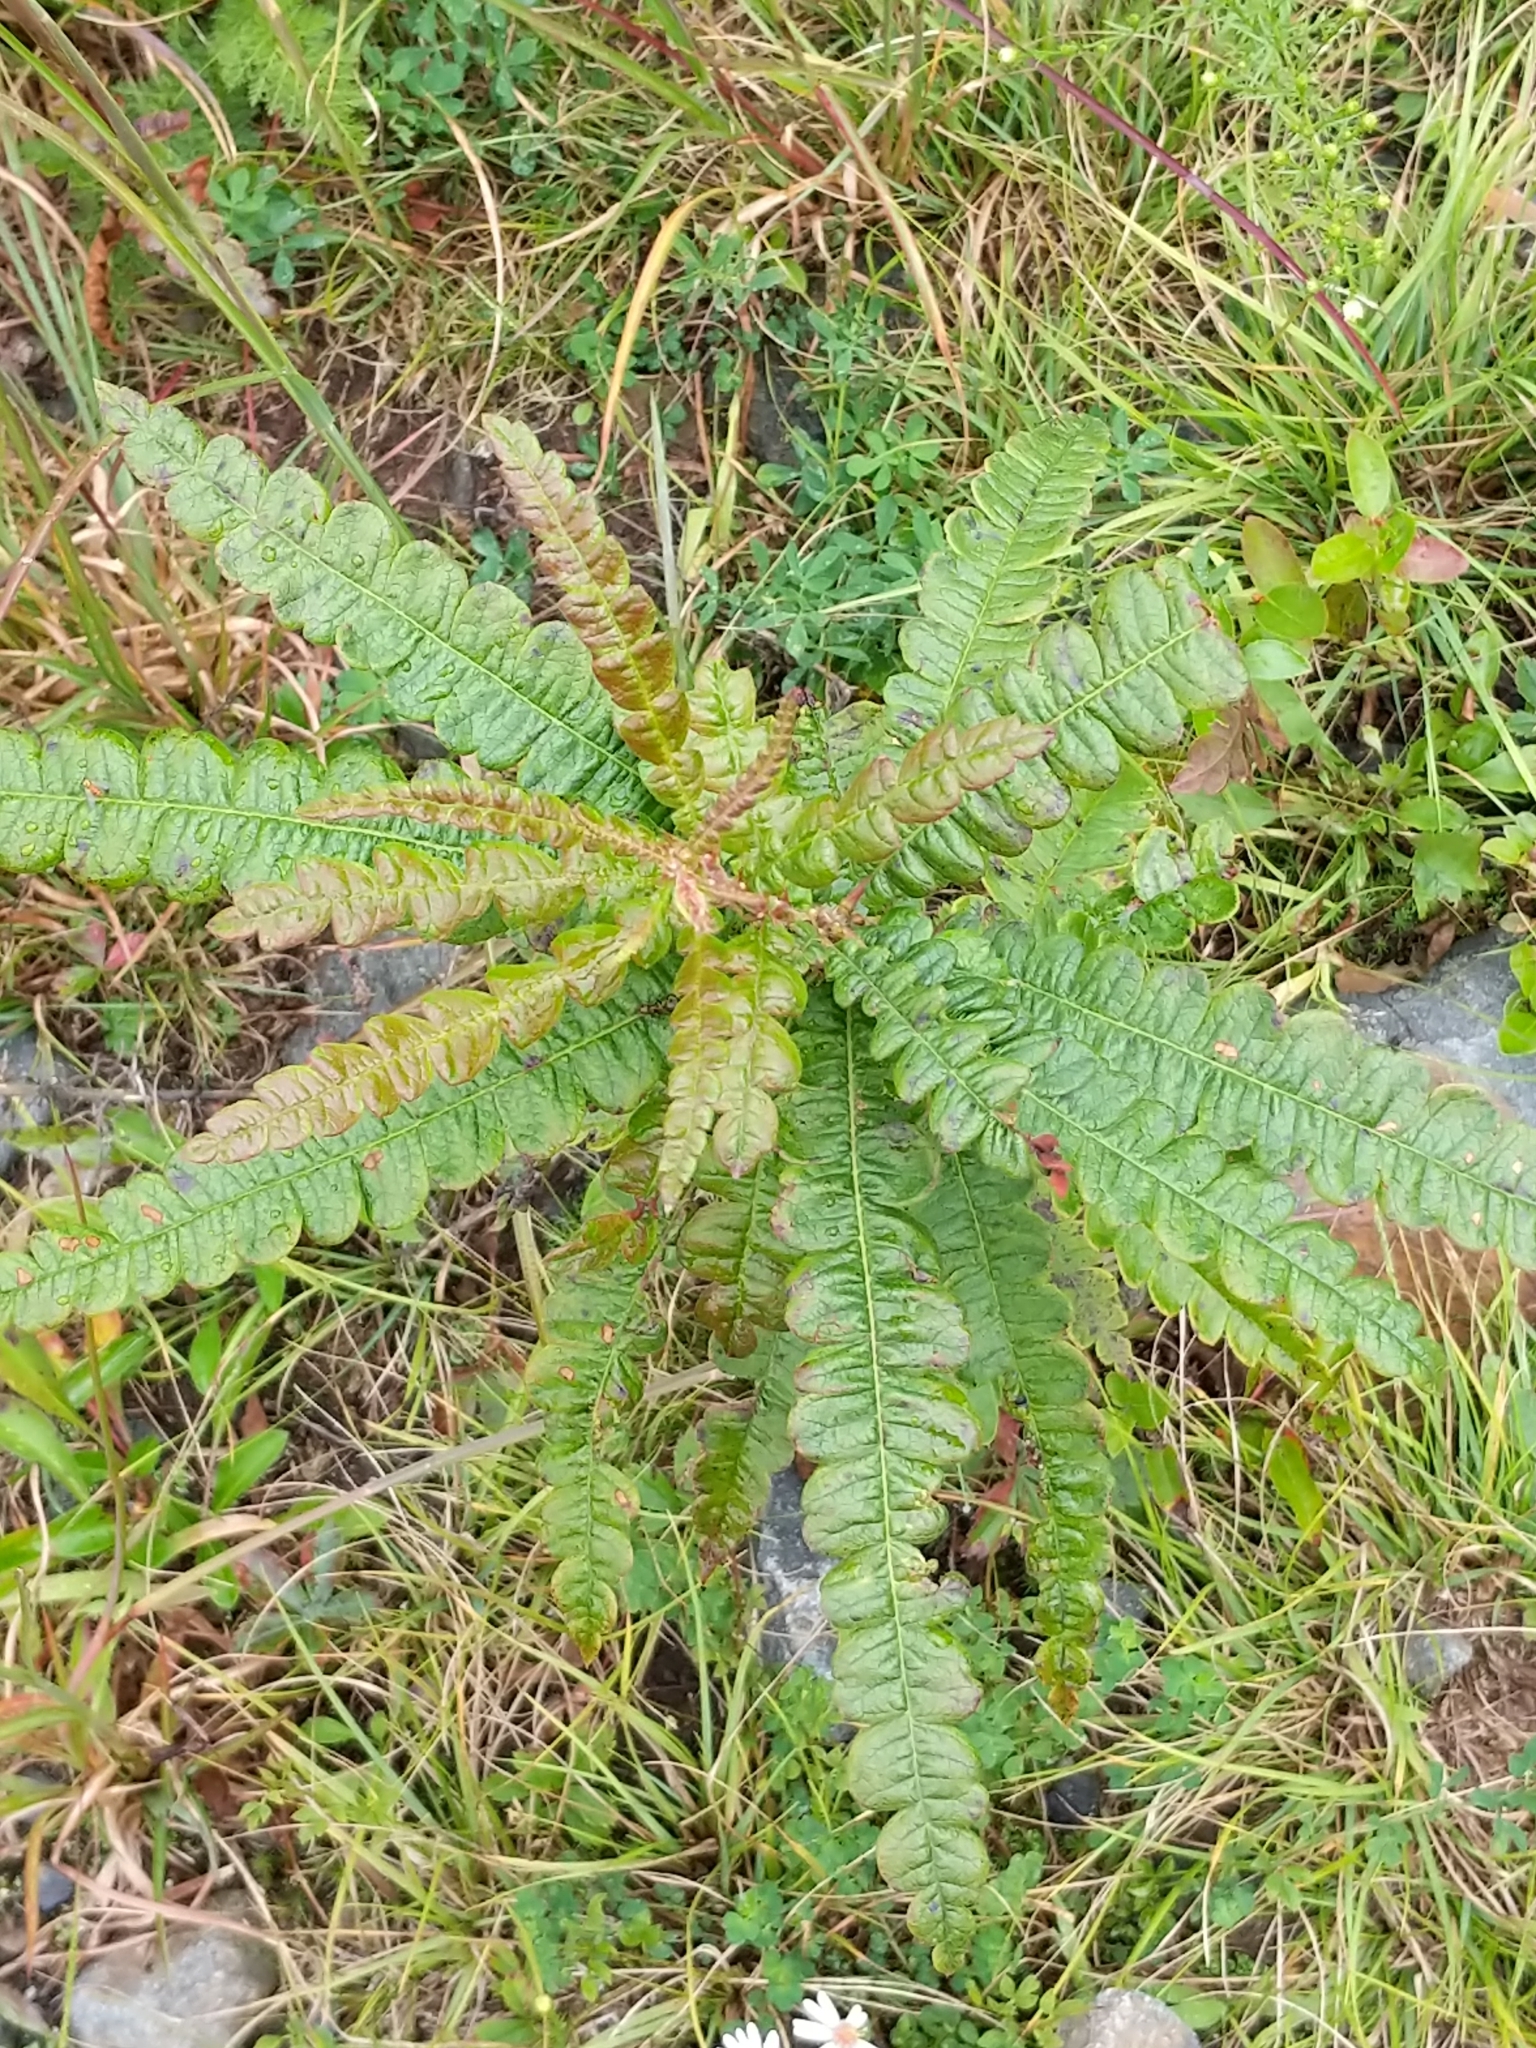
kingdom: Plantae
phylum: Tracheophyta
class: Magnoliopsida
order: Fagales
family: Myricaceae
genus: Comptonia
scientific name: Comptonia peregrina
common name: Sweet-fern
